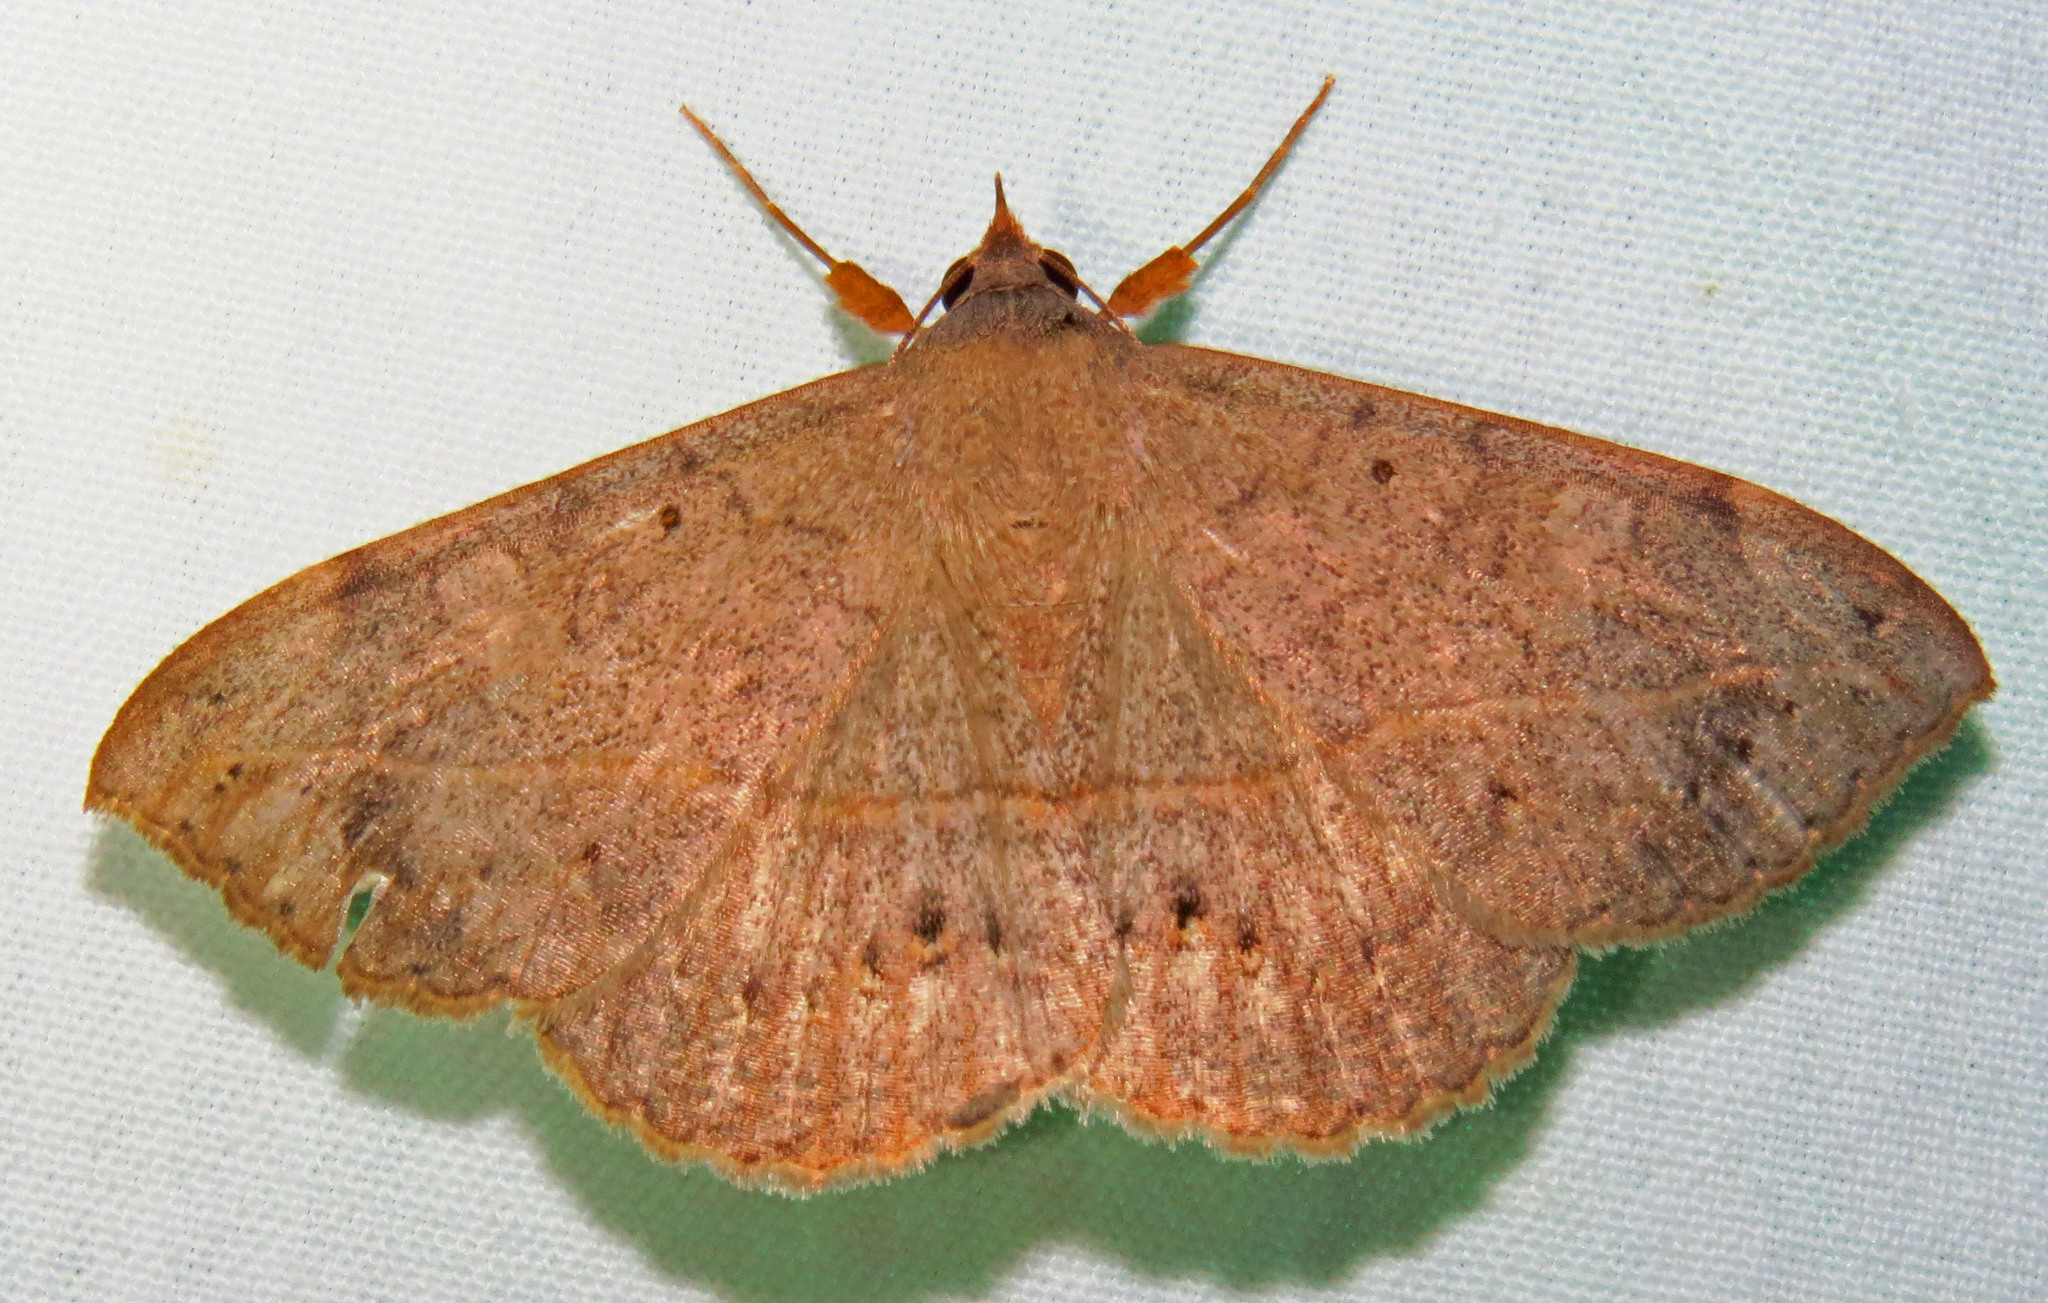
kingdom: Animalia
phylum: Arthropoda
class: Insecta
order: Lepidoptera
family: Erebidae
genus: Anticarsia
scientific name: Anticarsia gemmatalis
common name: Cutworm moth
